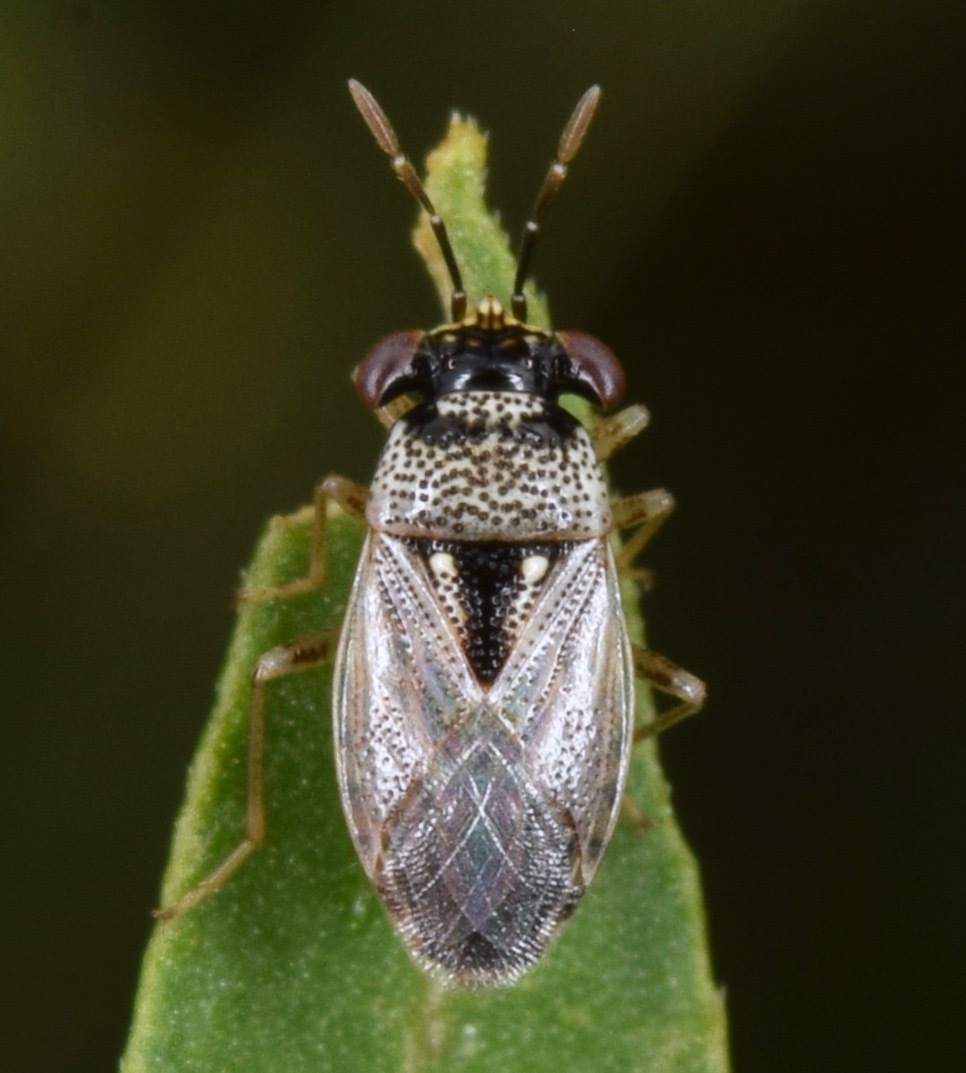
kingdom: Animalia
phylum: Arthropoda
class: Insecta
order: Hemiptera
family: Geocoridae
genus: Geocoris
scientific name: Geocoris punctipes
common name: Big-eyed bug
